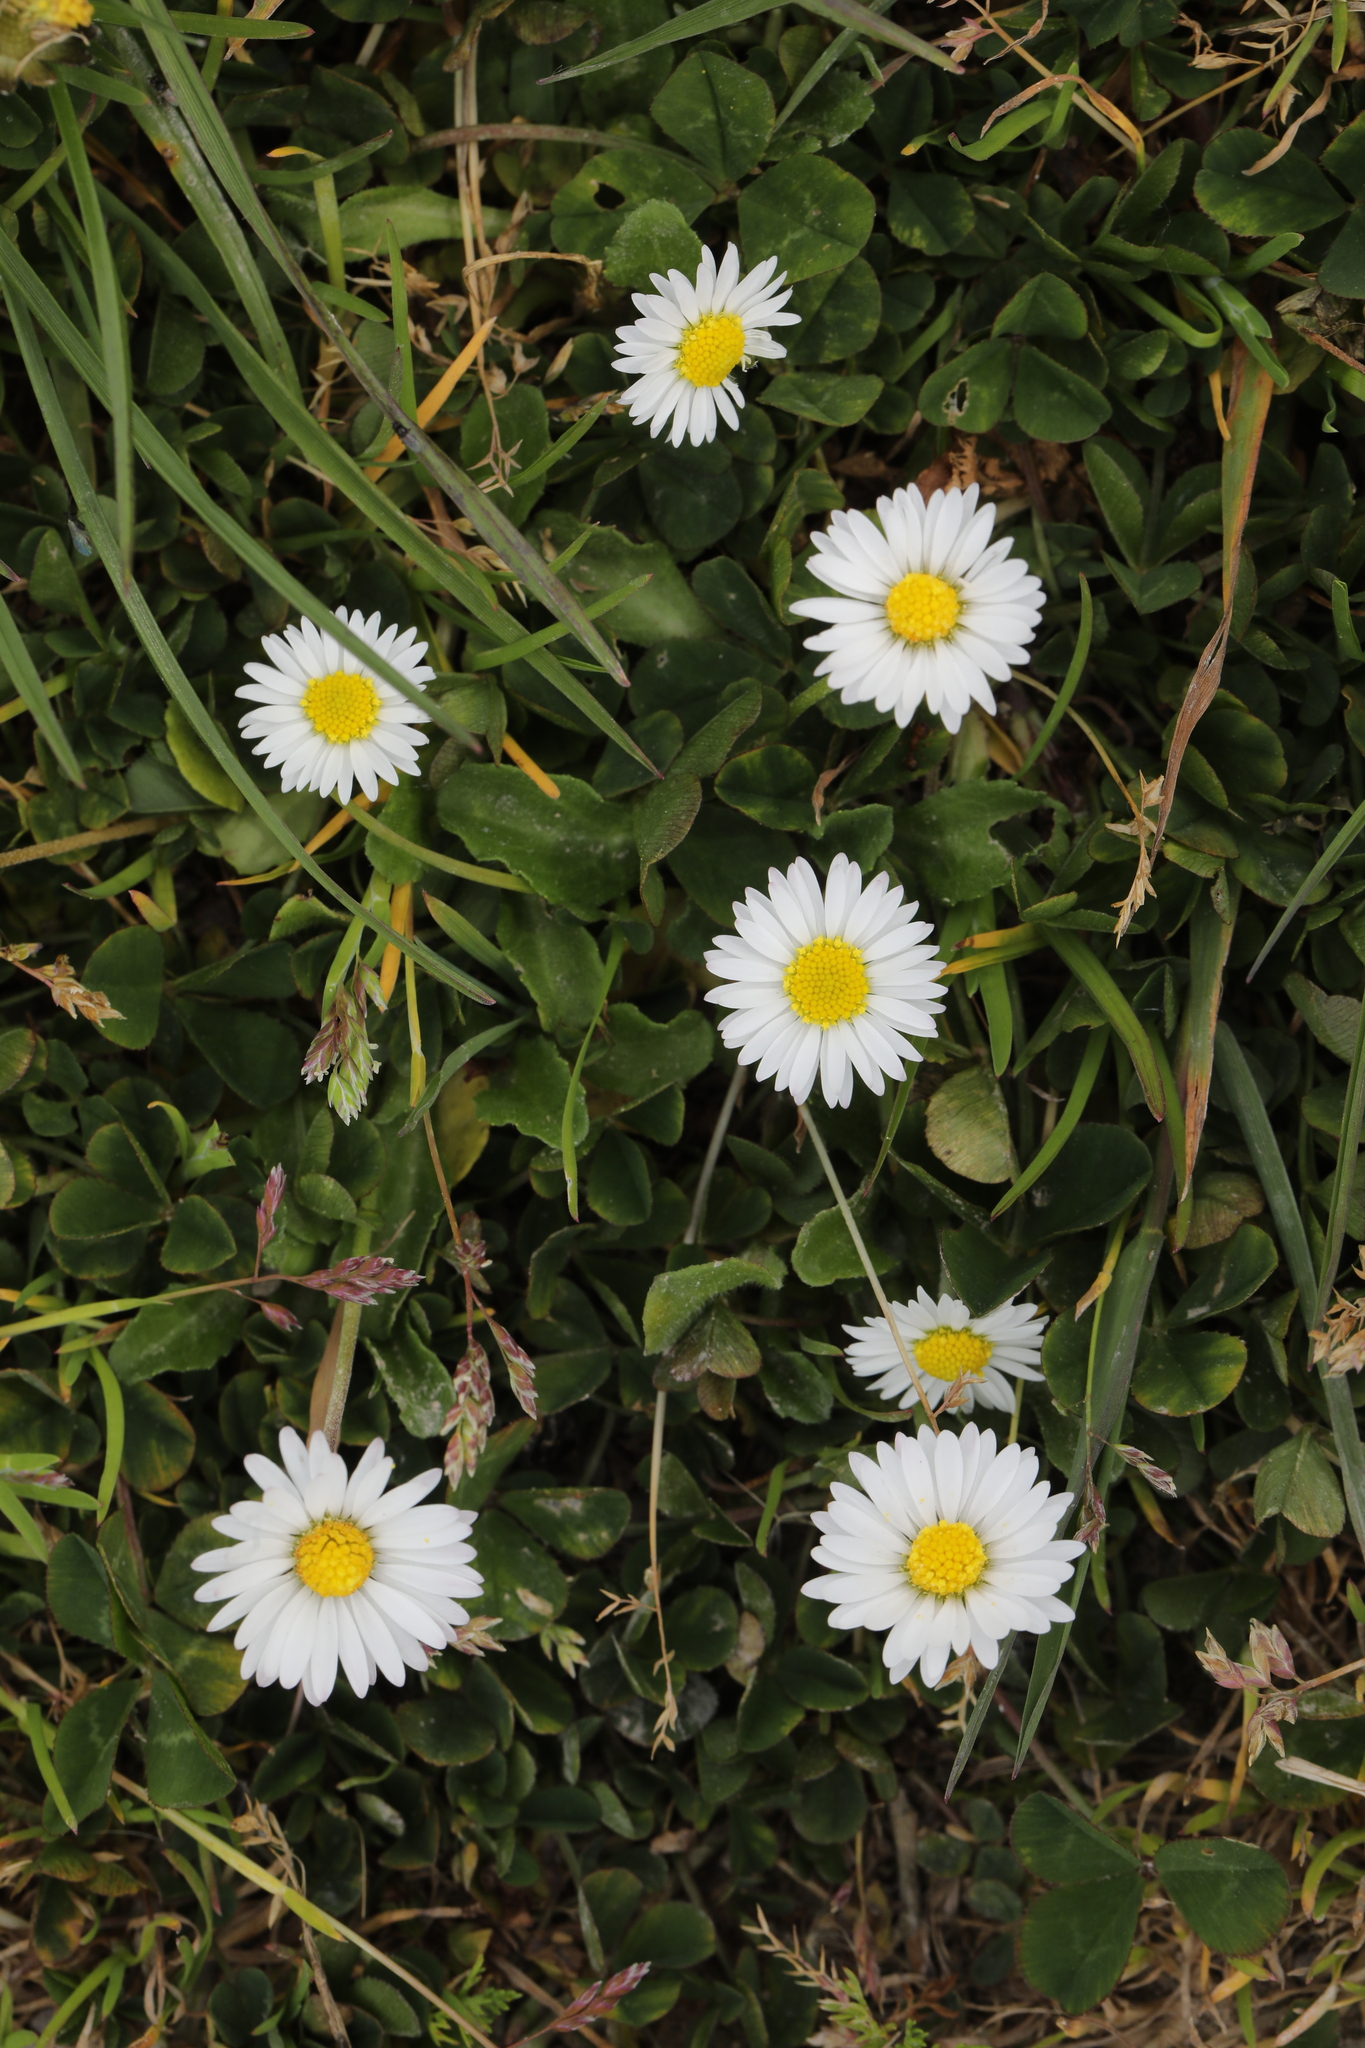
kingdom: Plantae
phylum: Tracheophyta
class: Magnoliopsida
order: Asterales
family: Asteraceae
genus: Bellis
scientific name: Bellis perennis
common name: Lawndaisy
